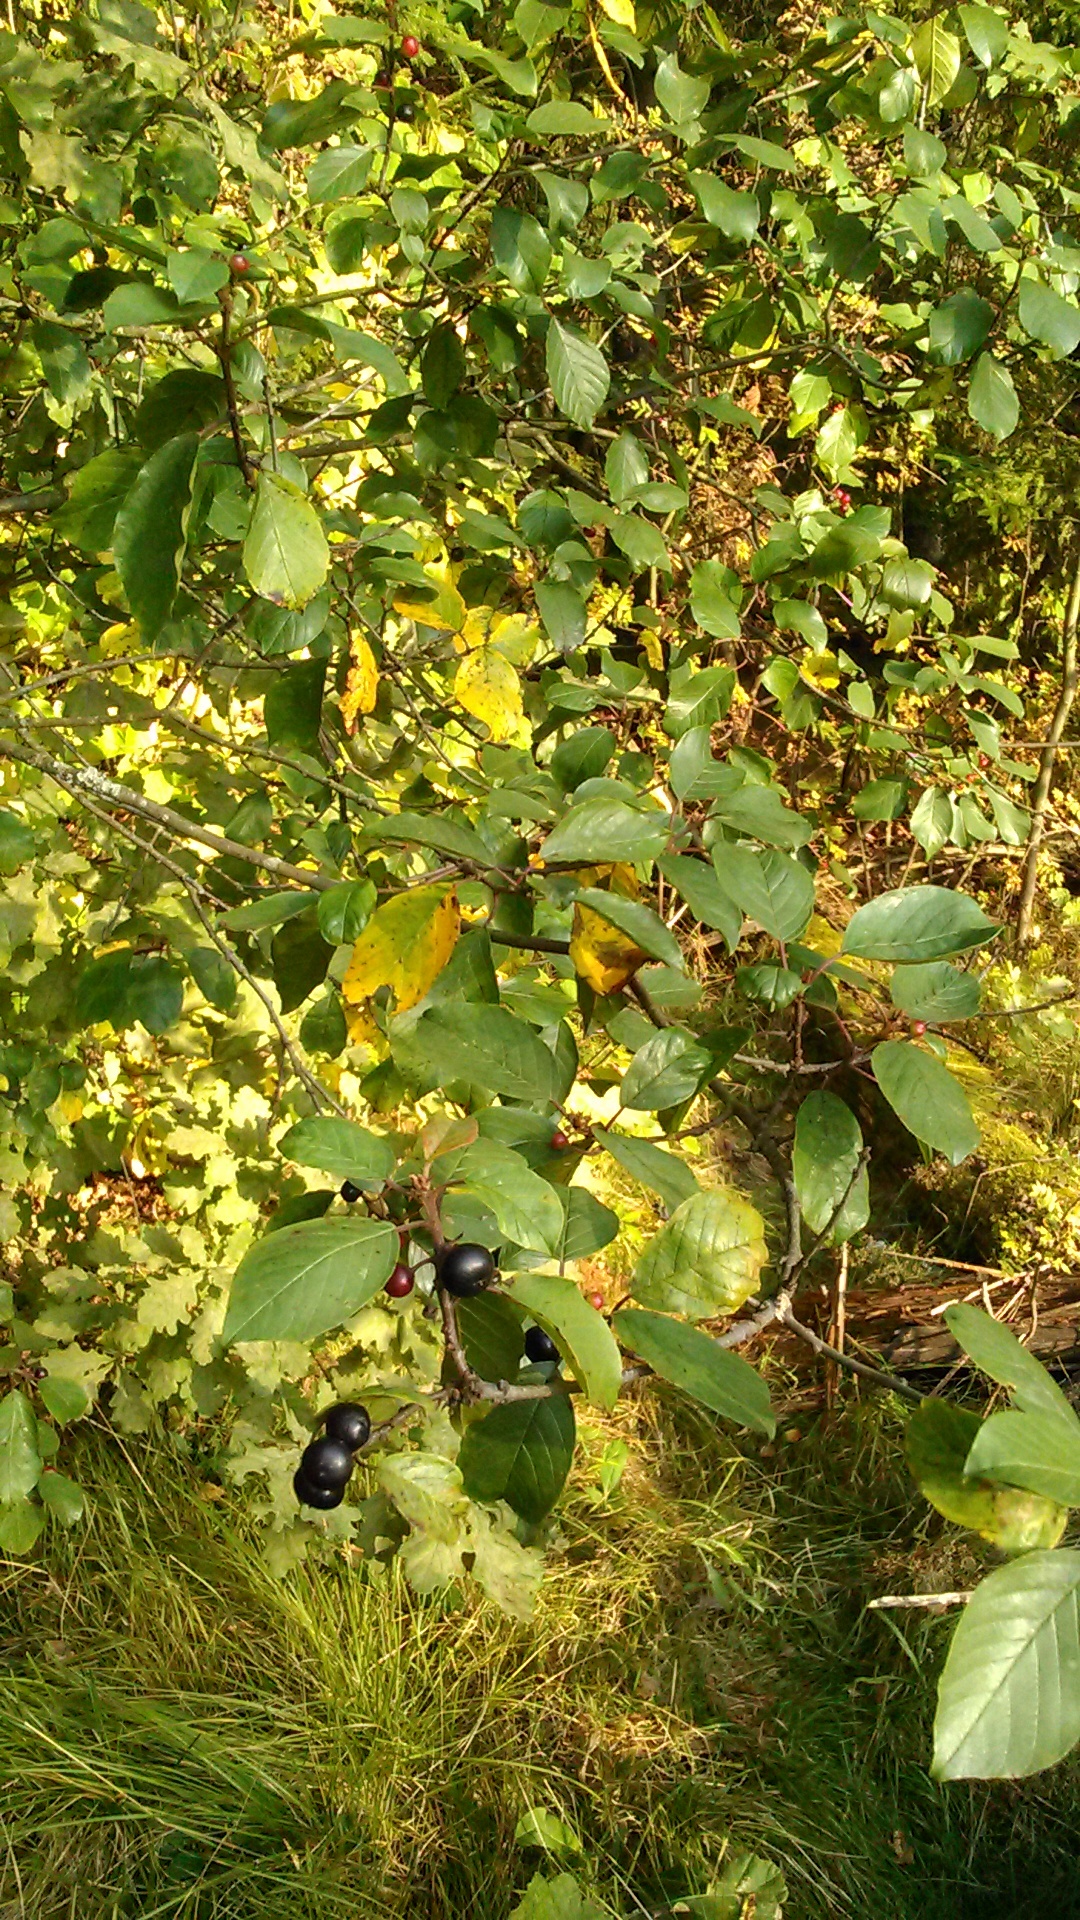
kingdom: Plantae
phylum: Tracheophyta
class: Magnoliopsida
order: Rosales
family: Rhamnaceae
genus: Frangula
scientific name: Frangula alnus
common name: Alder buckthorn
